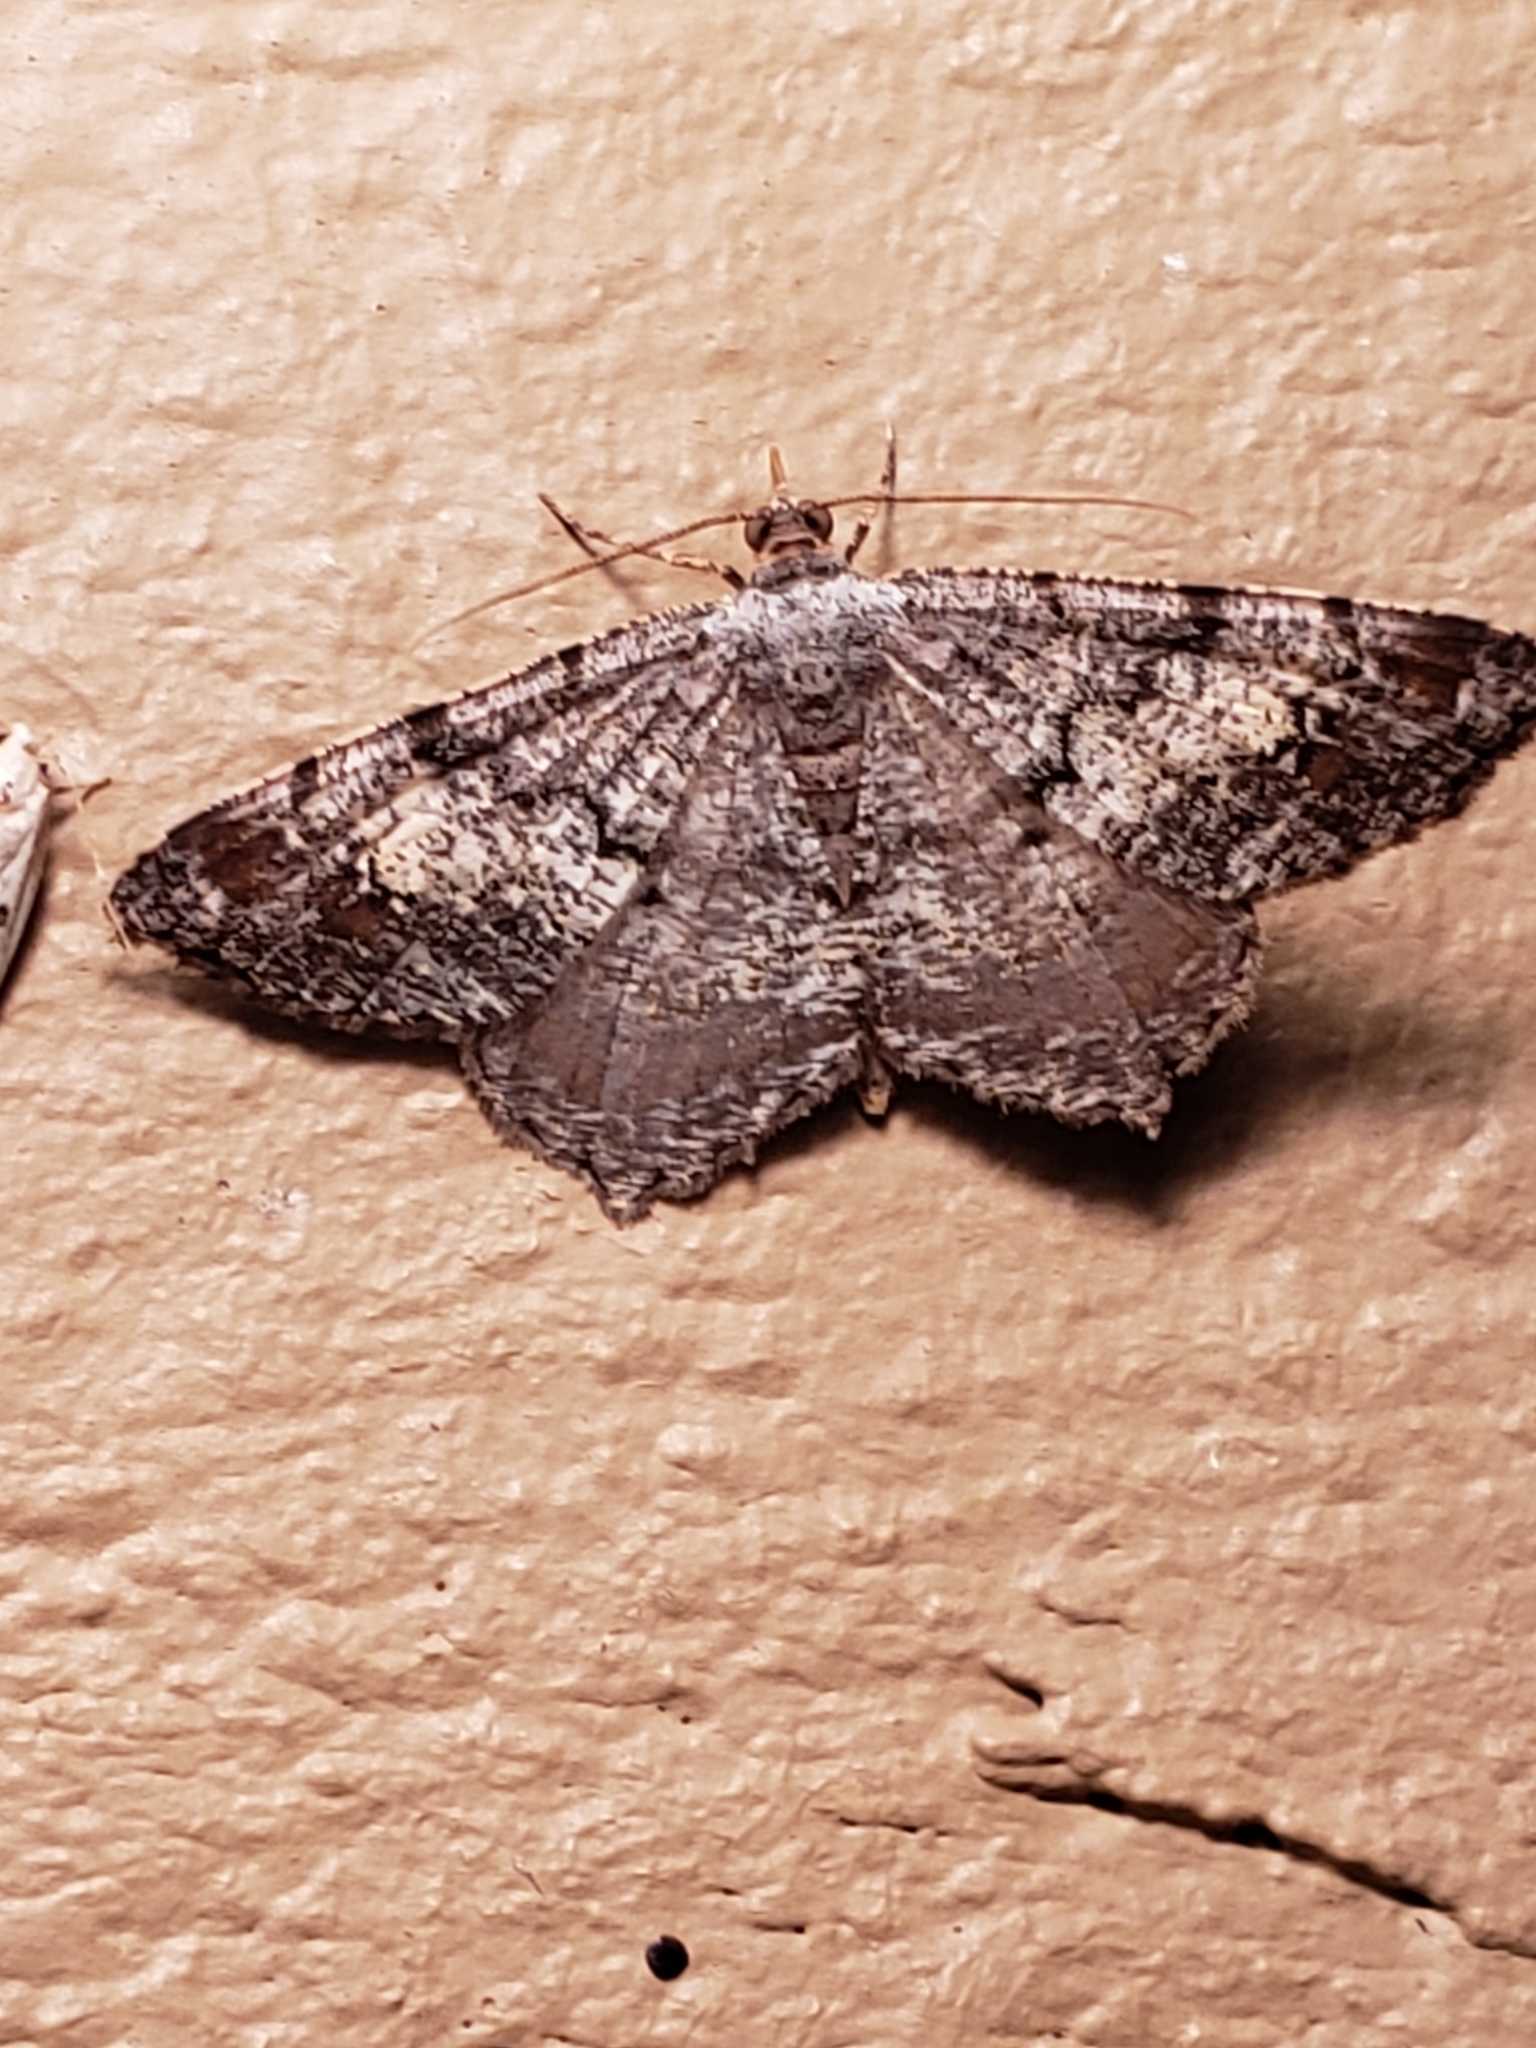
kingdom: Animalia
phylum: Arthropoda
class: Insecta
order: Lepidoptera
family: Geometridae
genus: Macaria
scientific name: Macaria granitata
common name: Granite moth
